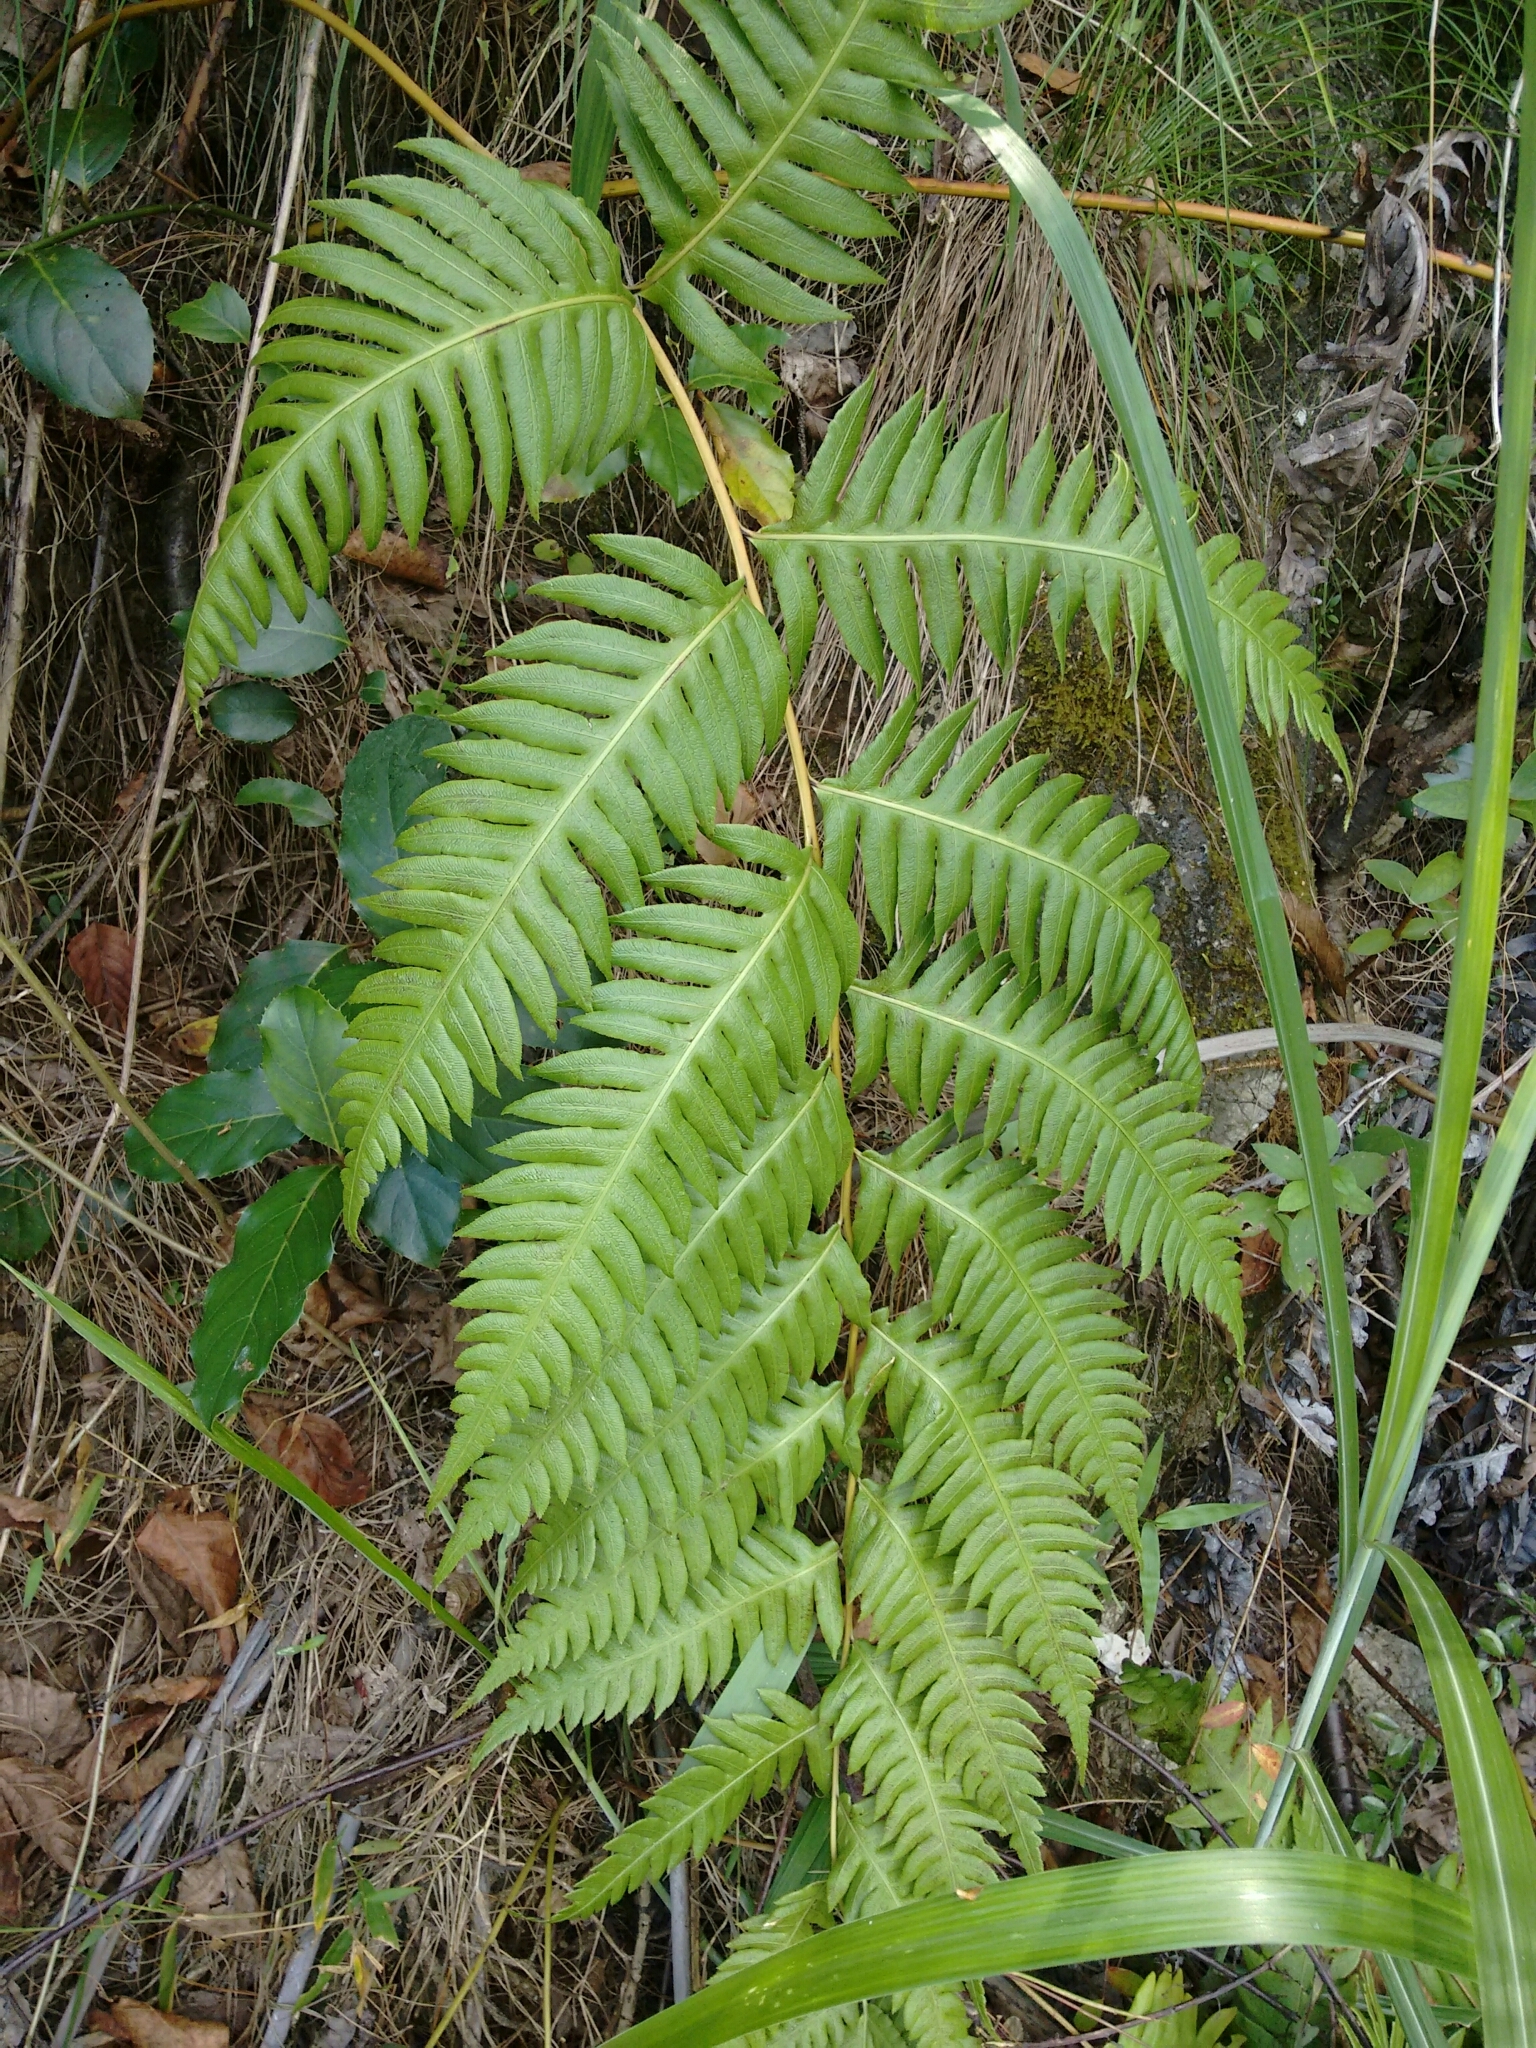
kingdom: Plantae
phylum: Tracheophyta
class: Polypodiopsida
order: Polypodiales
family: Blechnaceae
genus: Woodwardia
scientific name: Woodwardia unigemmata
